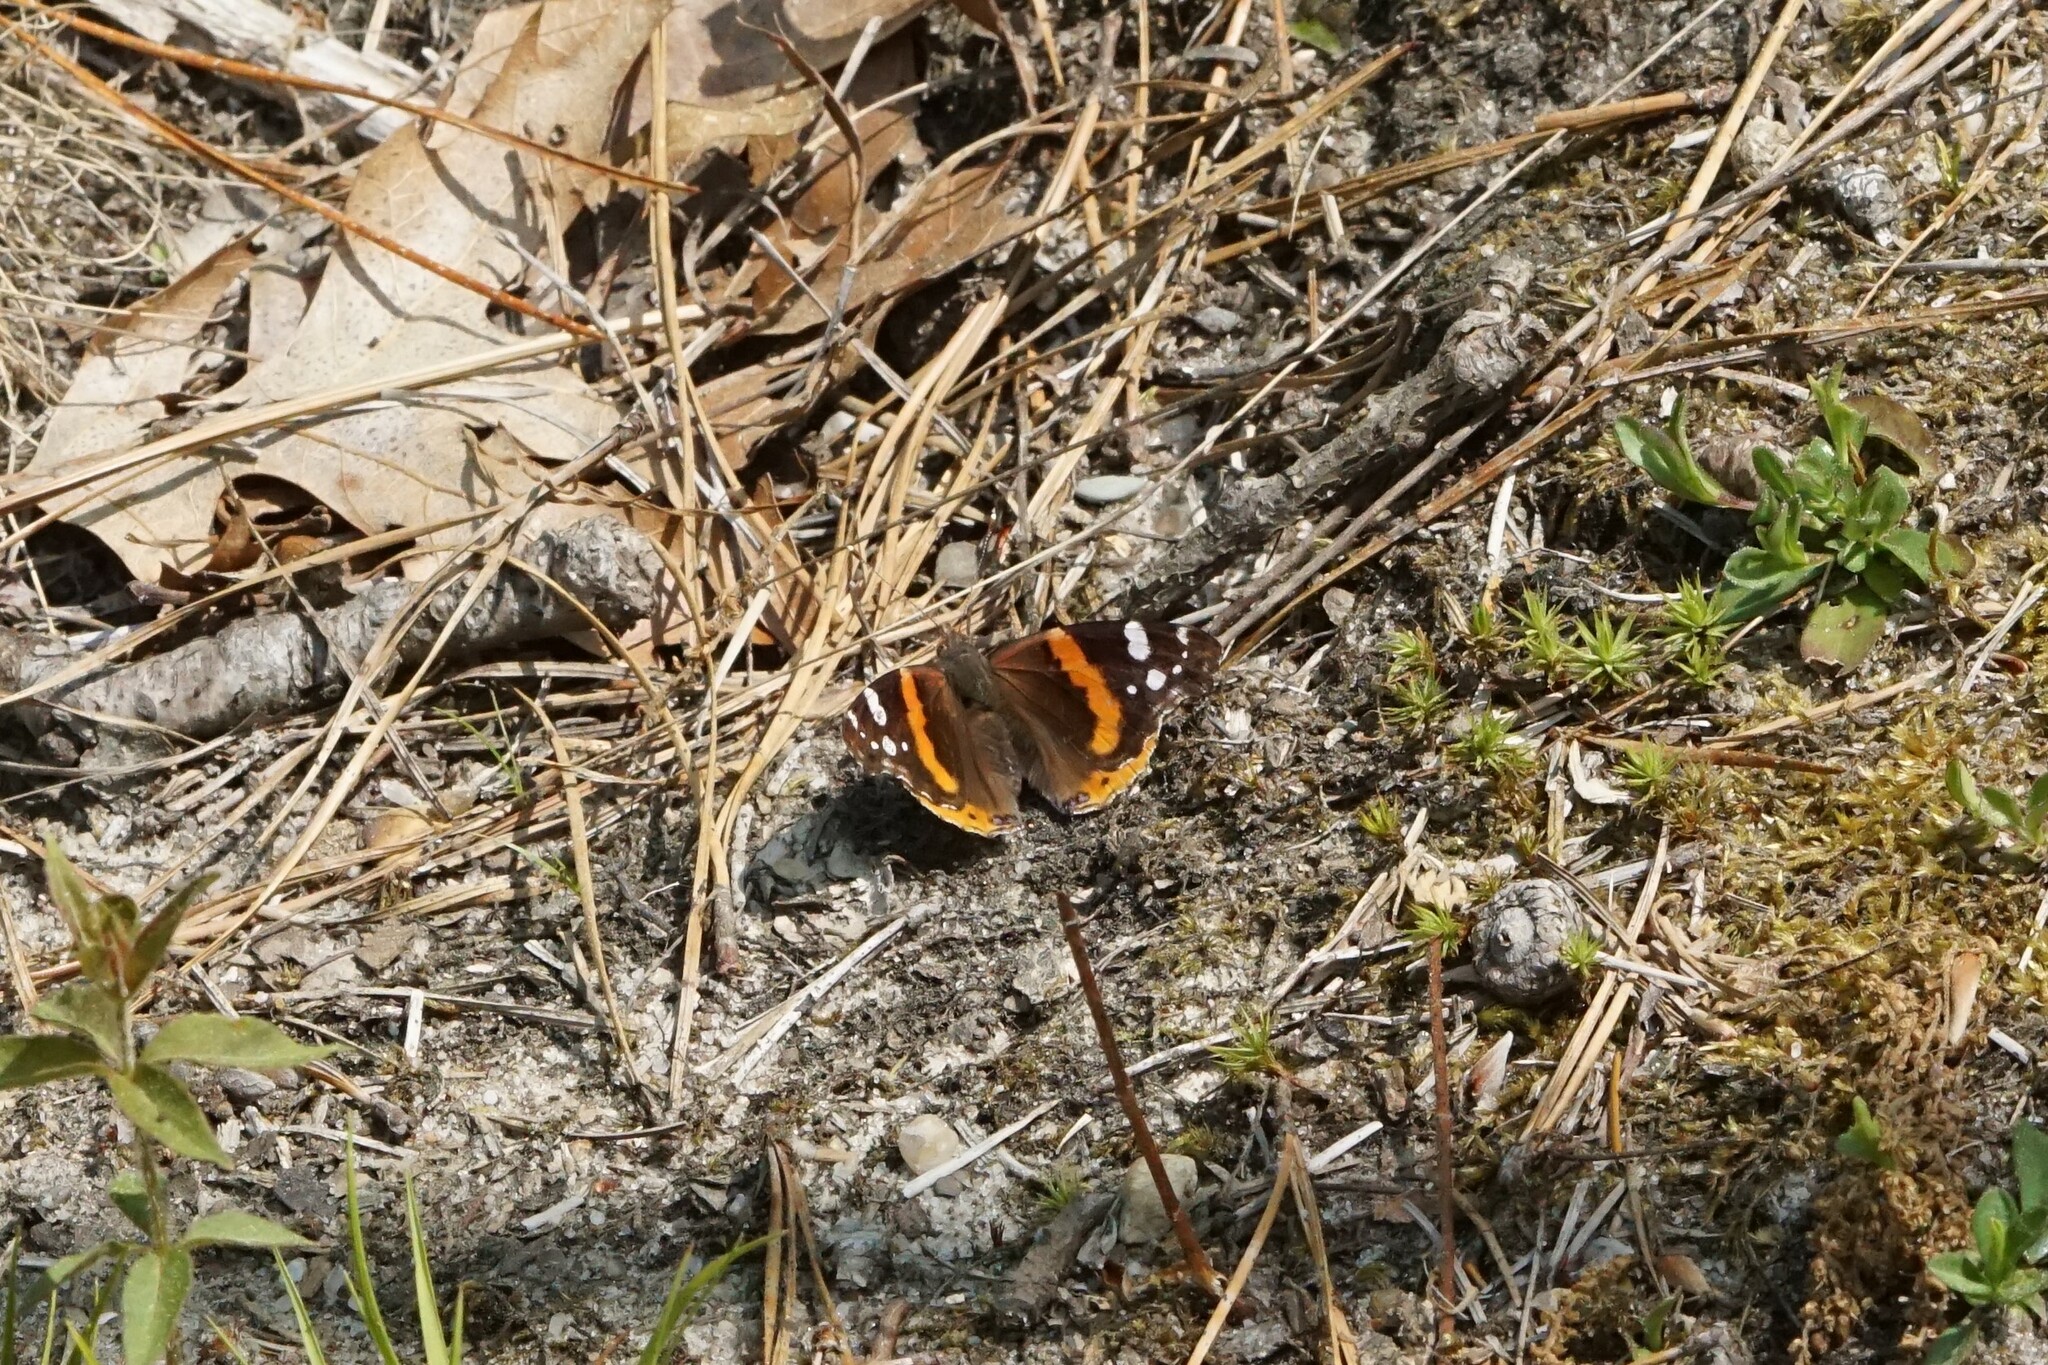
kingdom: Animalia
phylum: Arthropoda
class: Insecta
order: Lepidoptera
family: Nymphalidae
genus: Vanessa
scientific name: Vanessa atalanta
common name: Red admiral
